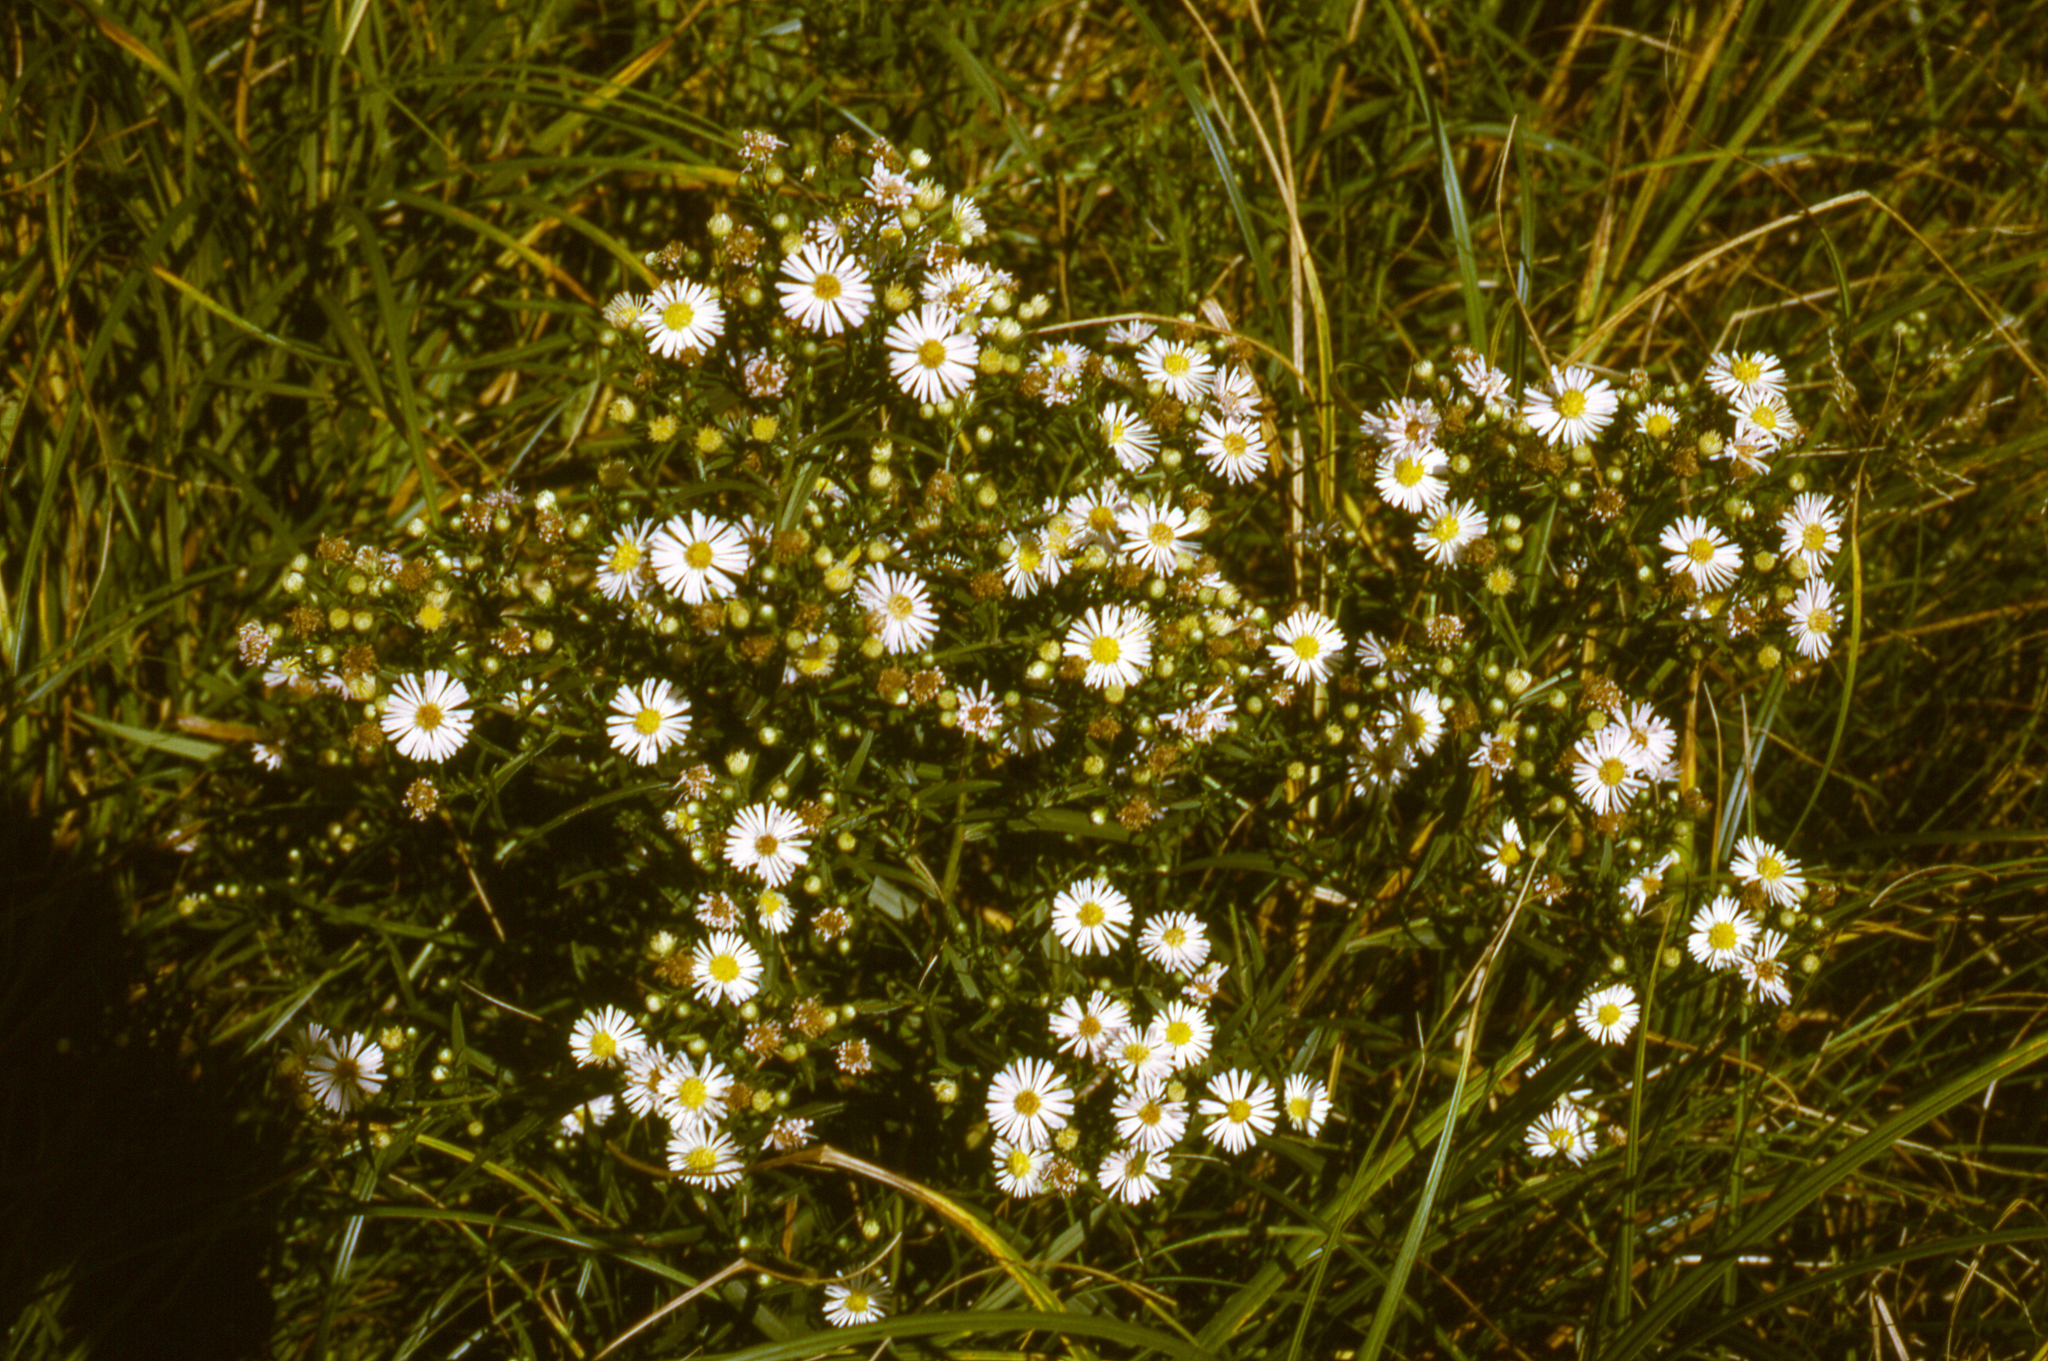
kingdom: Plantae
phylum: Tracheophyta
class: Magnoliopsida
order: Asterales
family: Asteraceae
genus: Symphyotrichum
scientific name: Symphyotrichum lanceolatum
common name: Panicled aster
